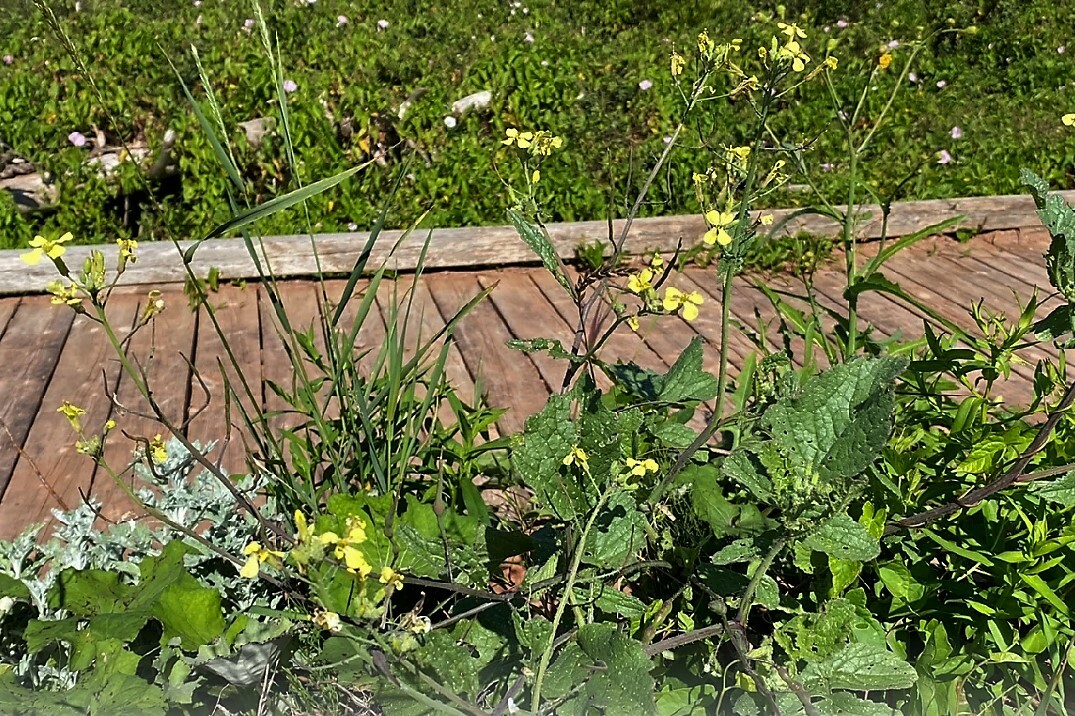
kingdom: Plantae
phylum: Tracheophyta
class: Magnoliopsida
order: Brassicales
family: Brassicaceae
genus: Raphanus
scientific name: Raphanus raphanistrum
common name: Wild radish
